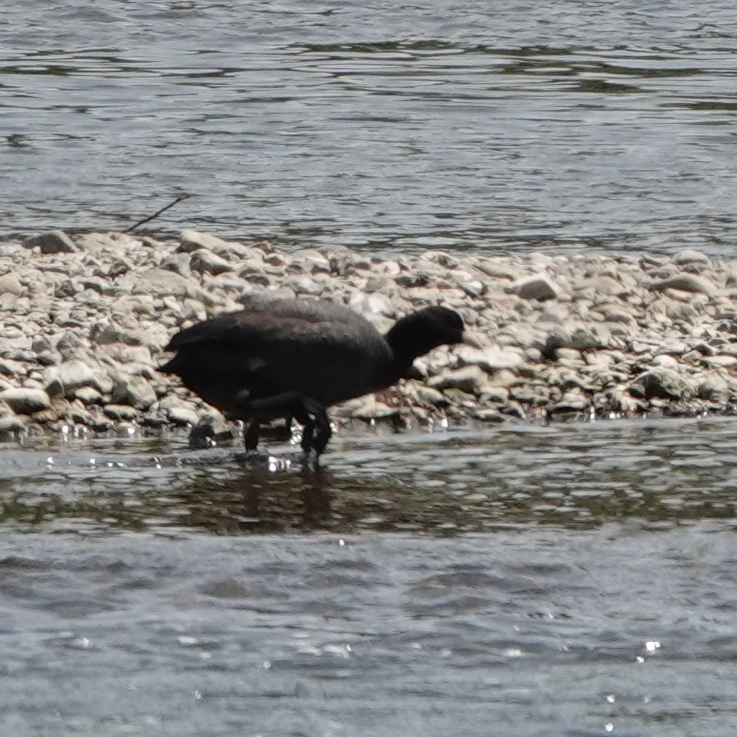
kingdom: Animalia
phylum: Chordata
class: Aves
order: Gruiformes
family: Rallidae
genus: Fulica
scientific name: Fulica atra
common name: Eurasian coot
